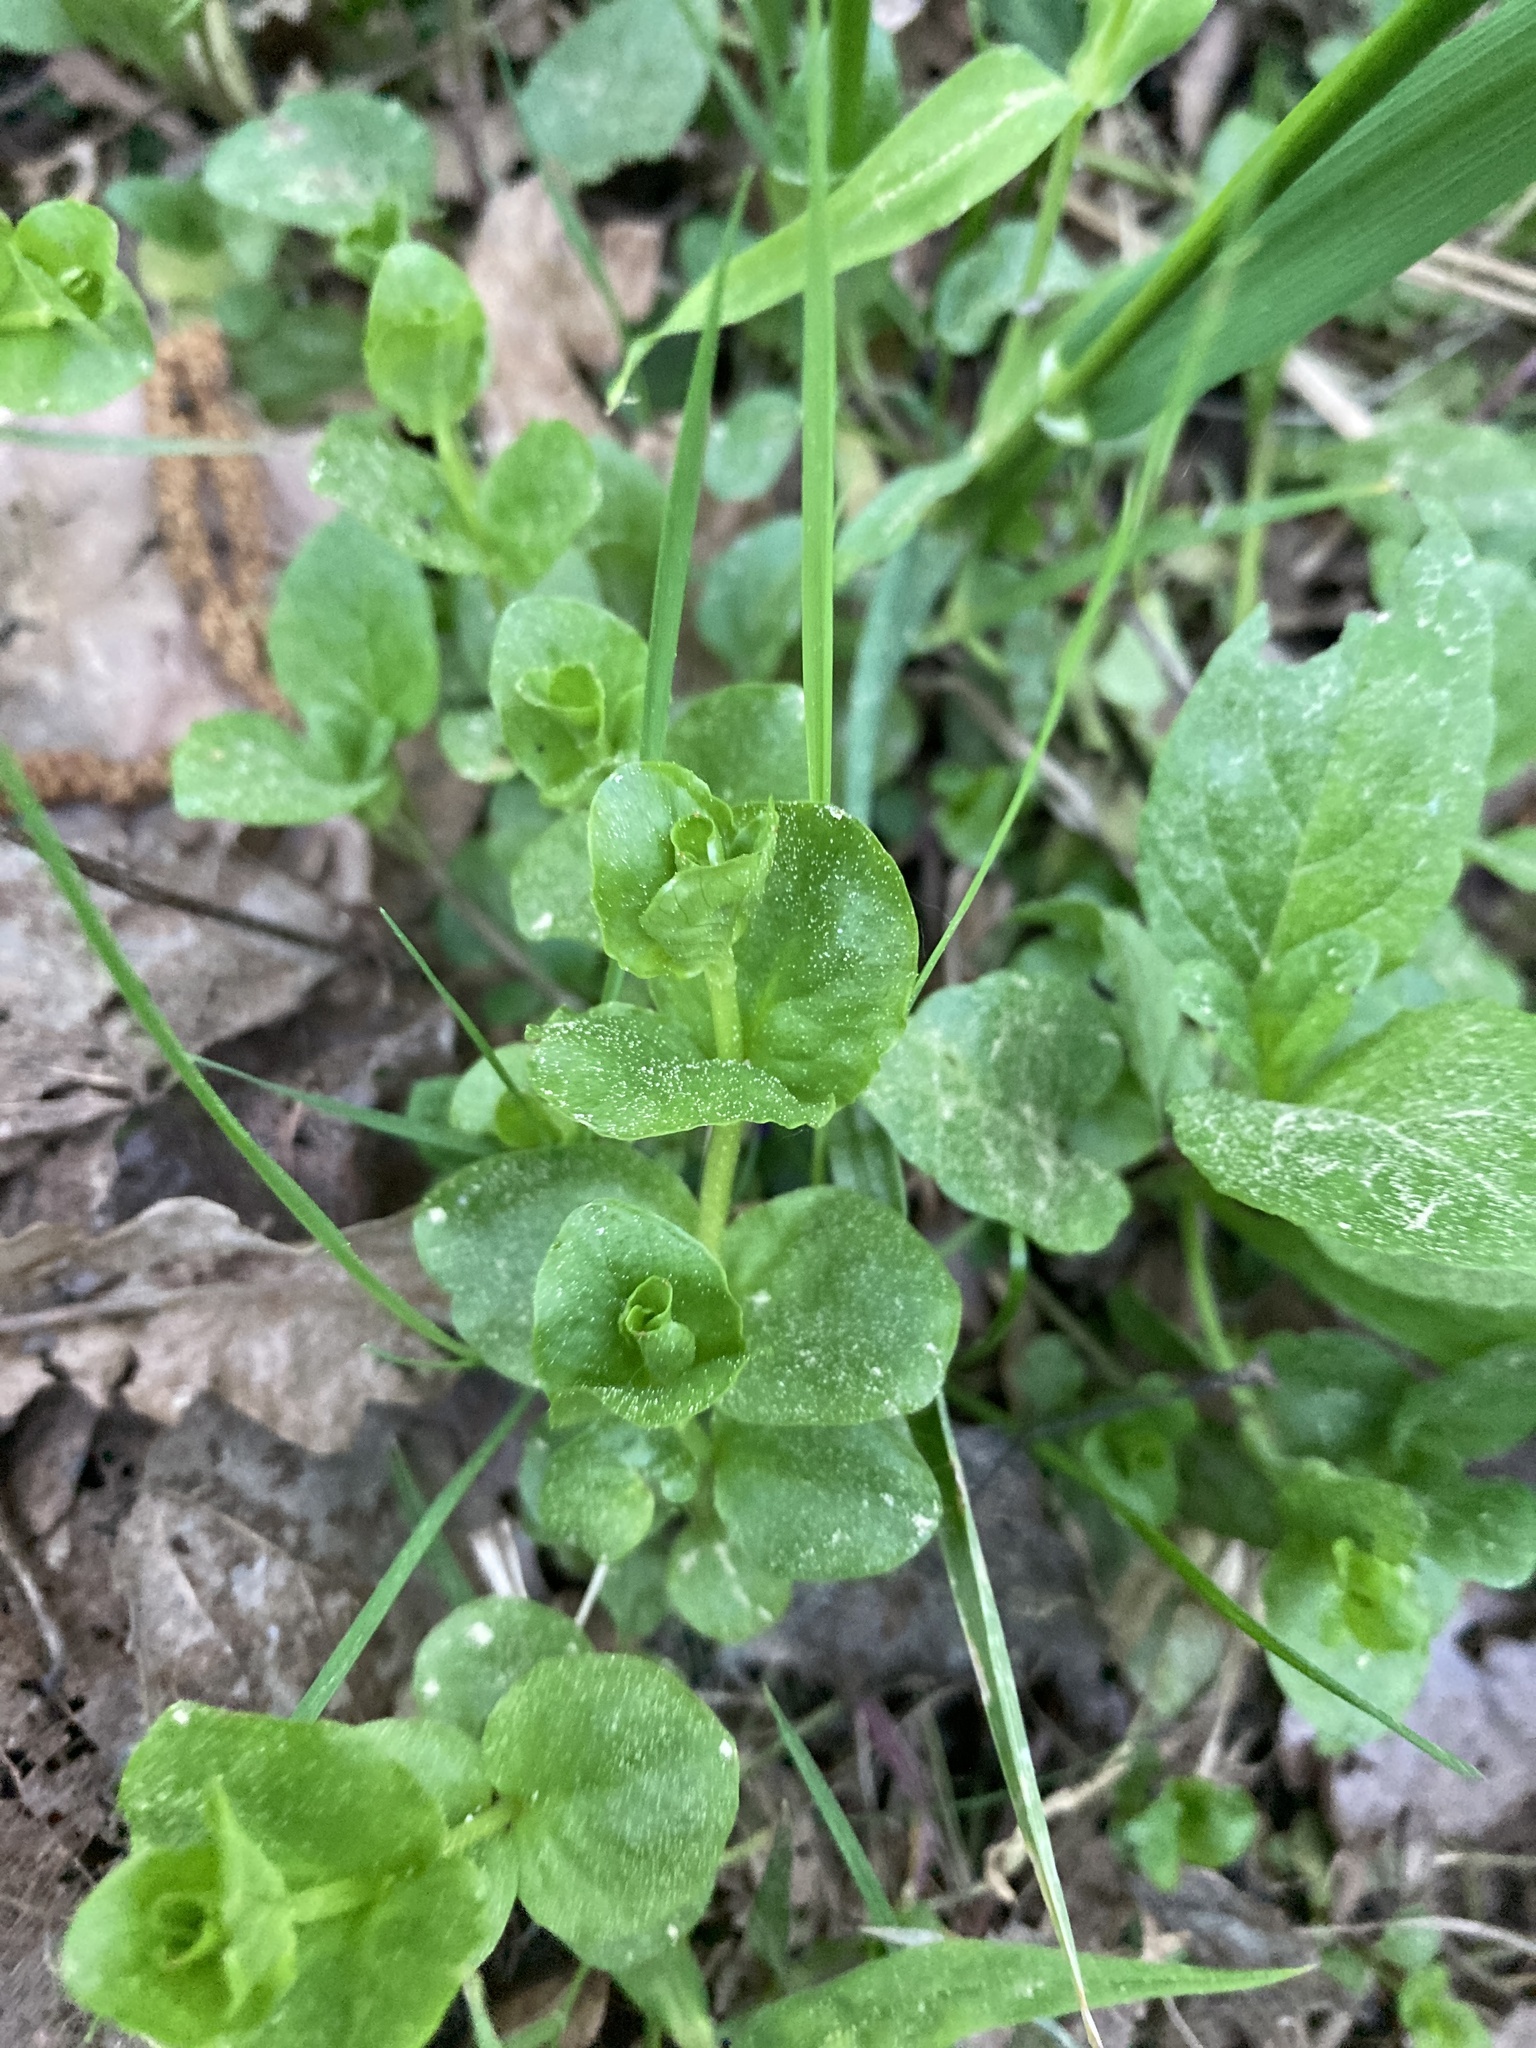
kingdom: Plantae
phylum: Tracheophyta
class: Magnoliopsida
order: Ericales
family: Primulaceae
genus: Lysimachia
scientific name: Lysimachia nummularia
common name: Moneywort
